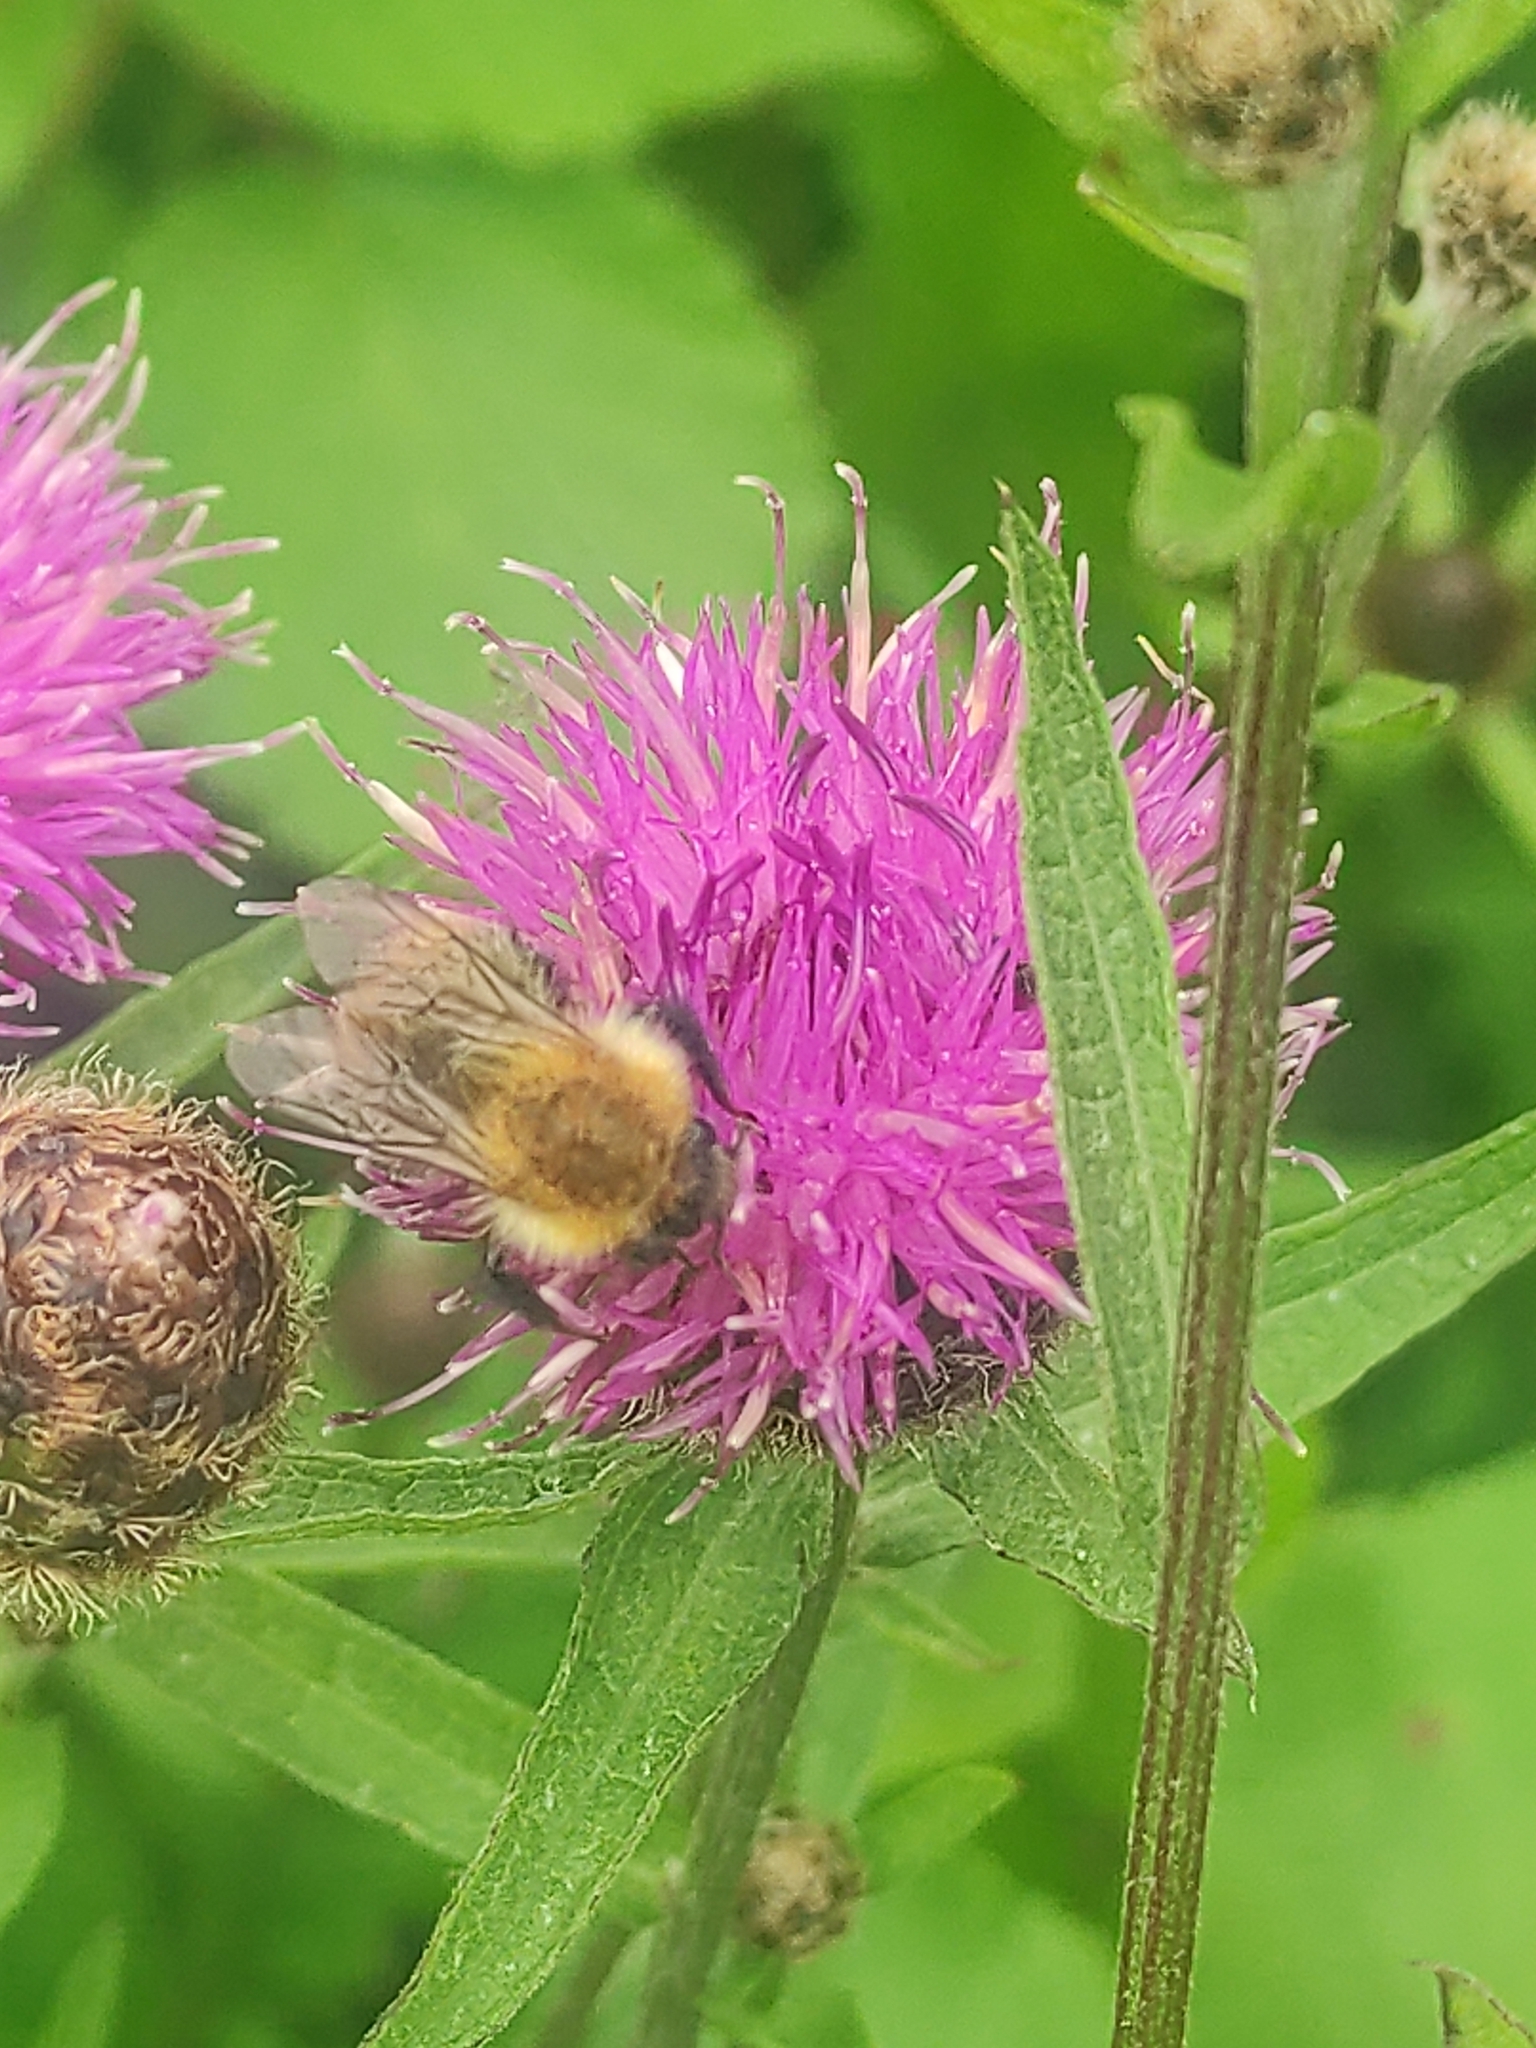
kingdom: Animalia
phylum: Arthropoda
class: Insecta
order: Hymenoptera
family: Apidae
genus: Bombus
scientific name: Bombus pascuorum
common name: Common carder bee
